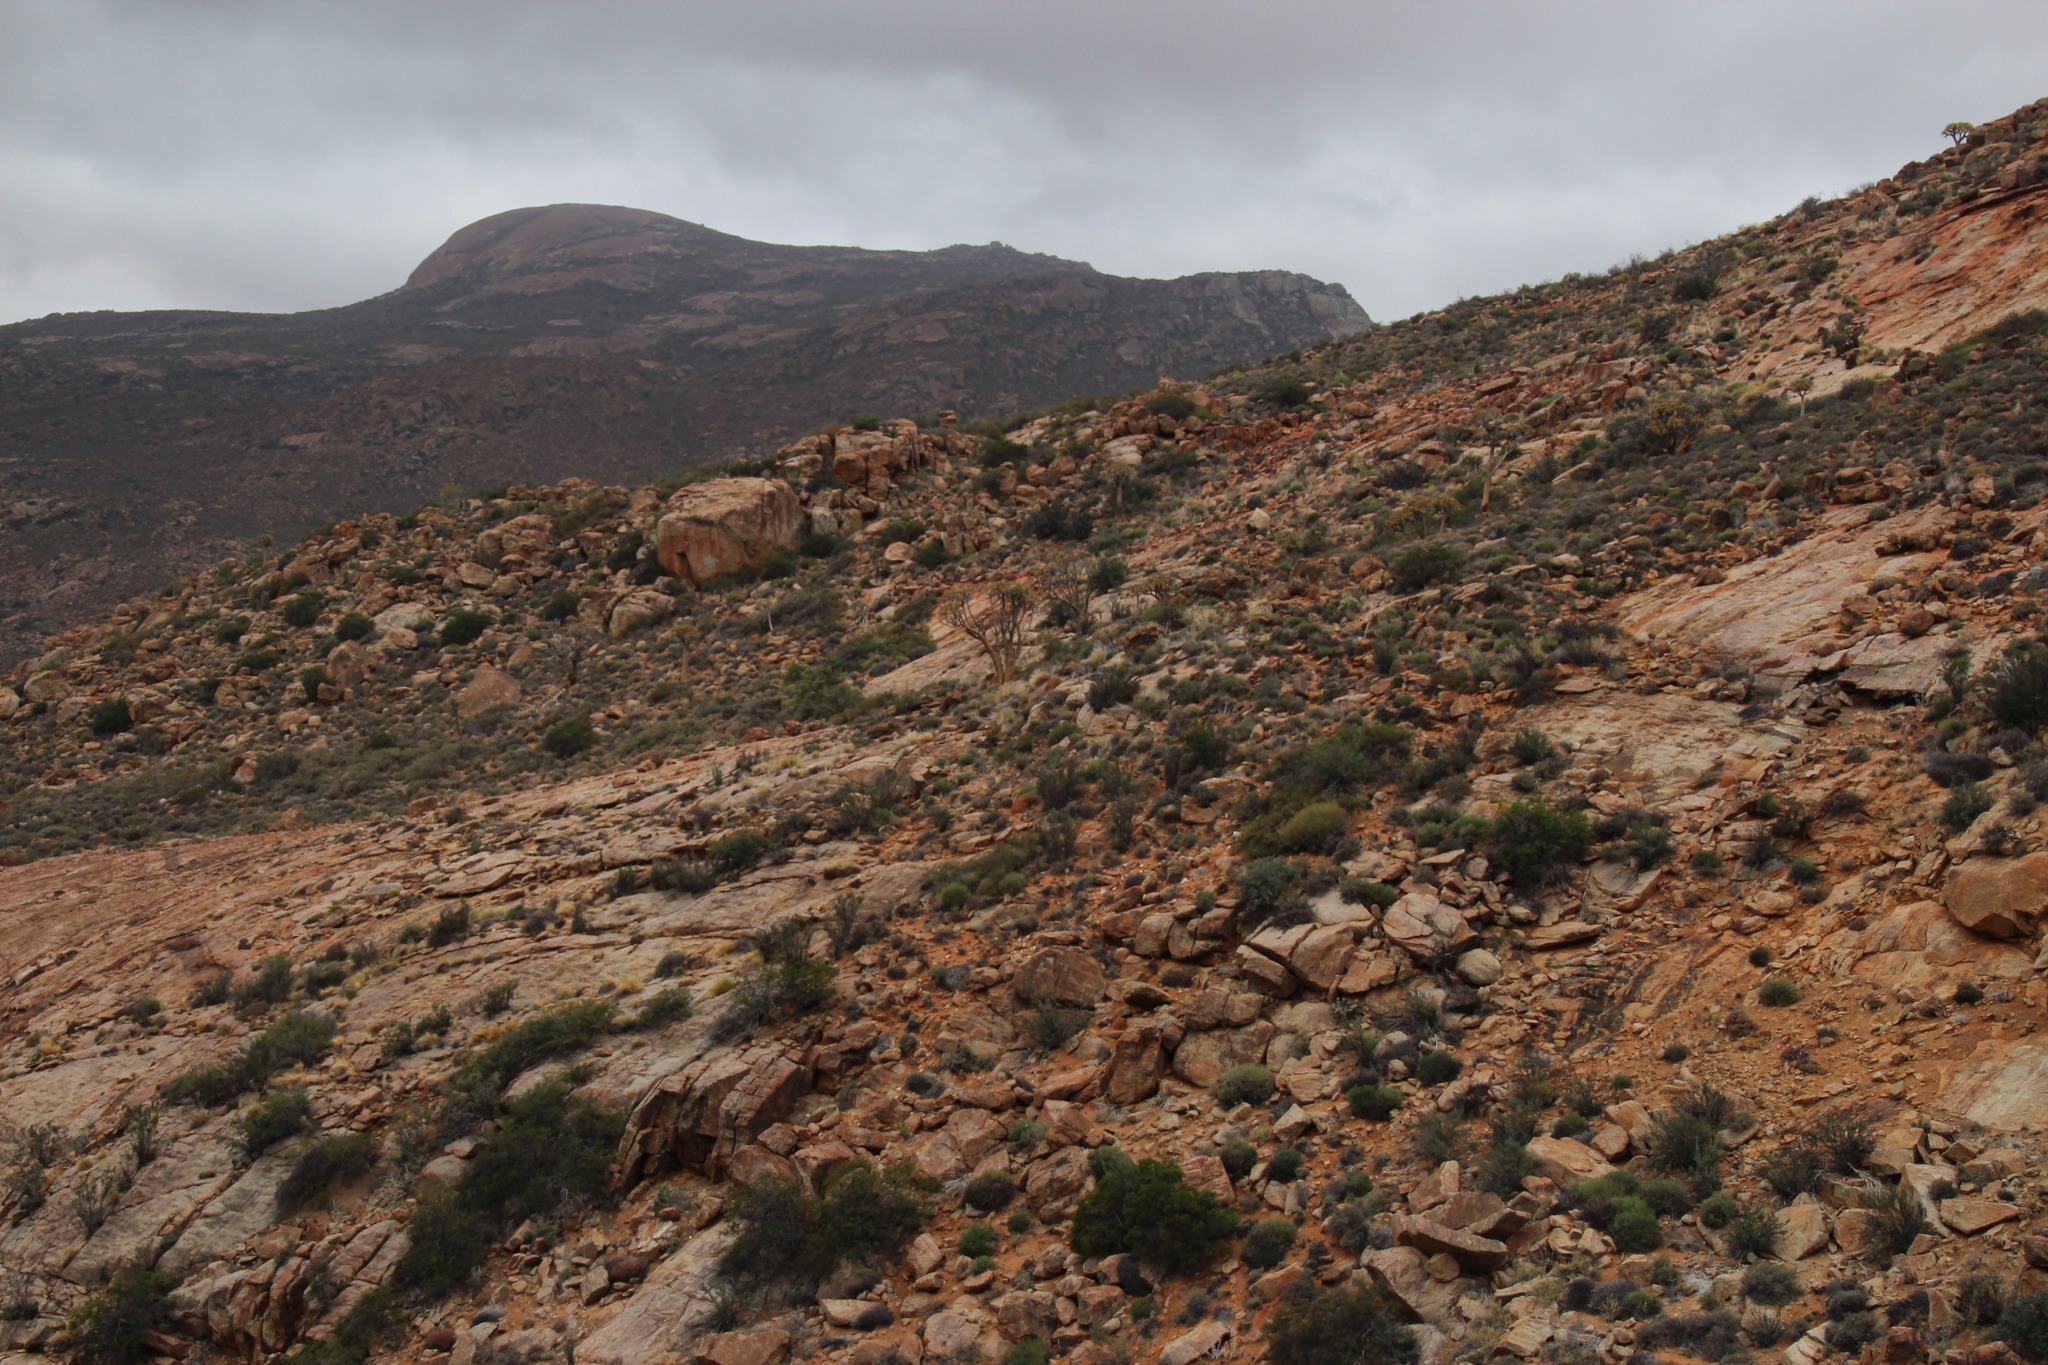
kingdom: Plantae
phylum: Tracheophyta
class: Liliopsida
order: Asparagales
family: Asphodelaceae
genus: Aloidendron
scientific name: Aloidendron dichotomum
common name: Quiver tree
